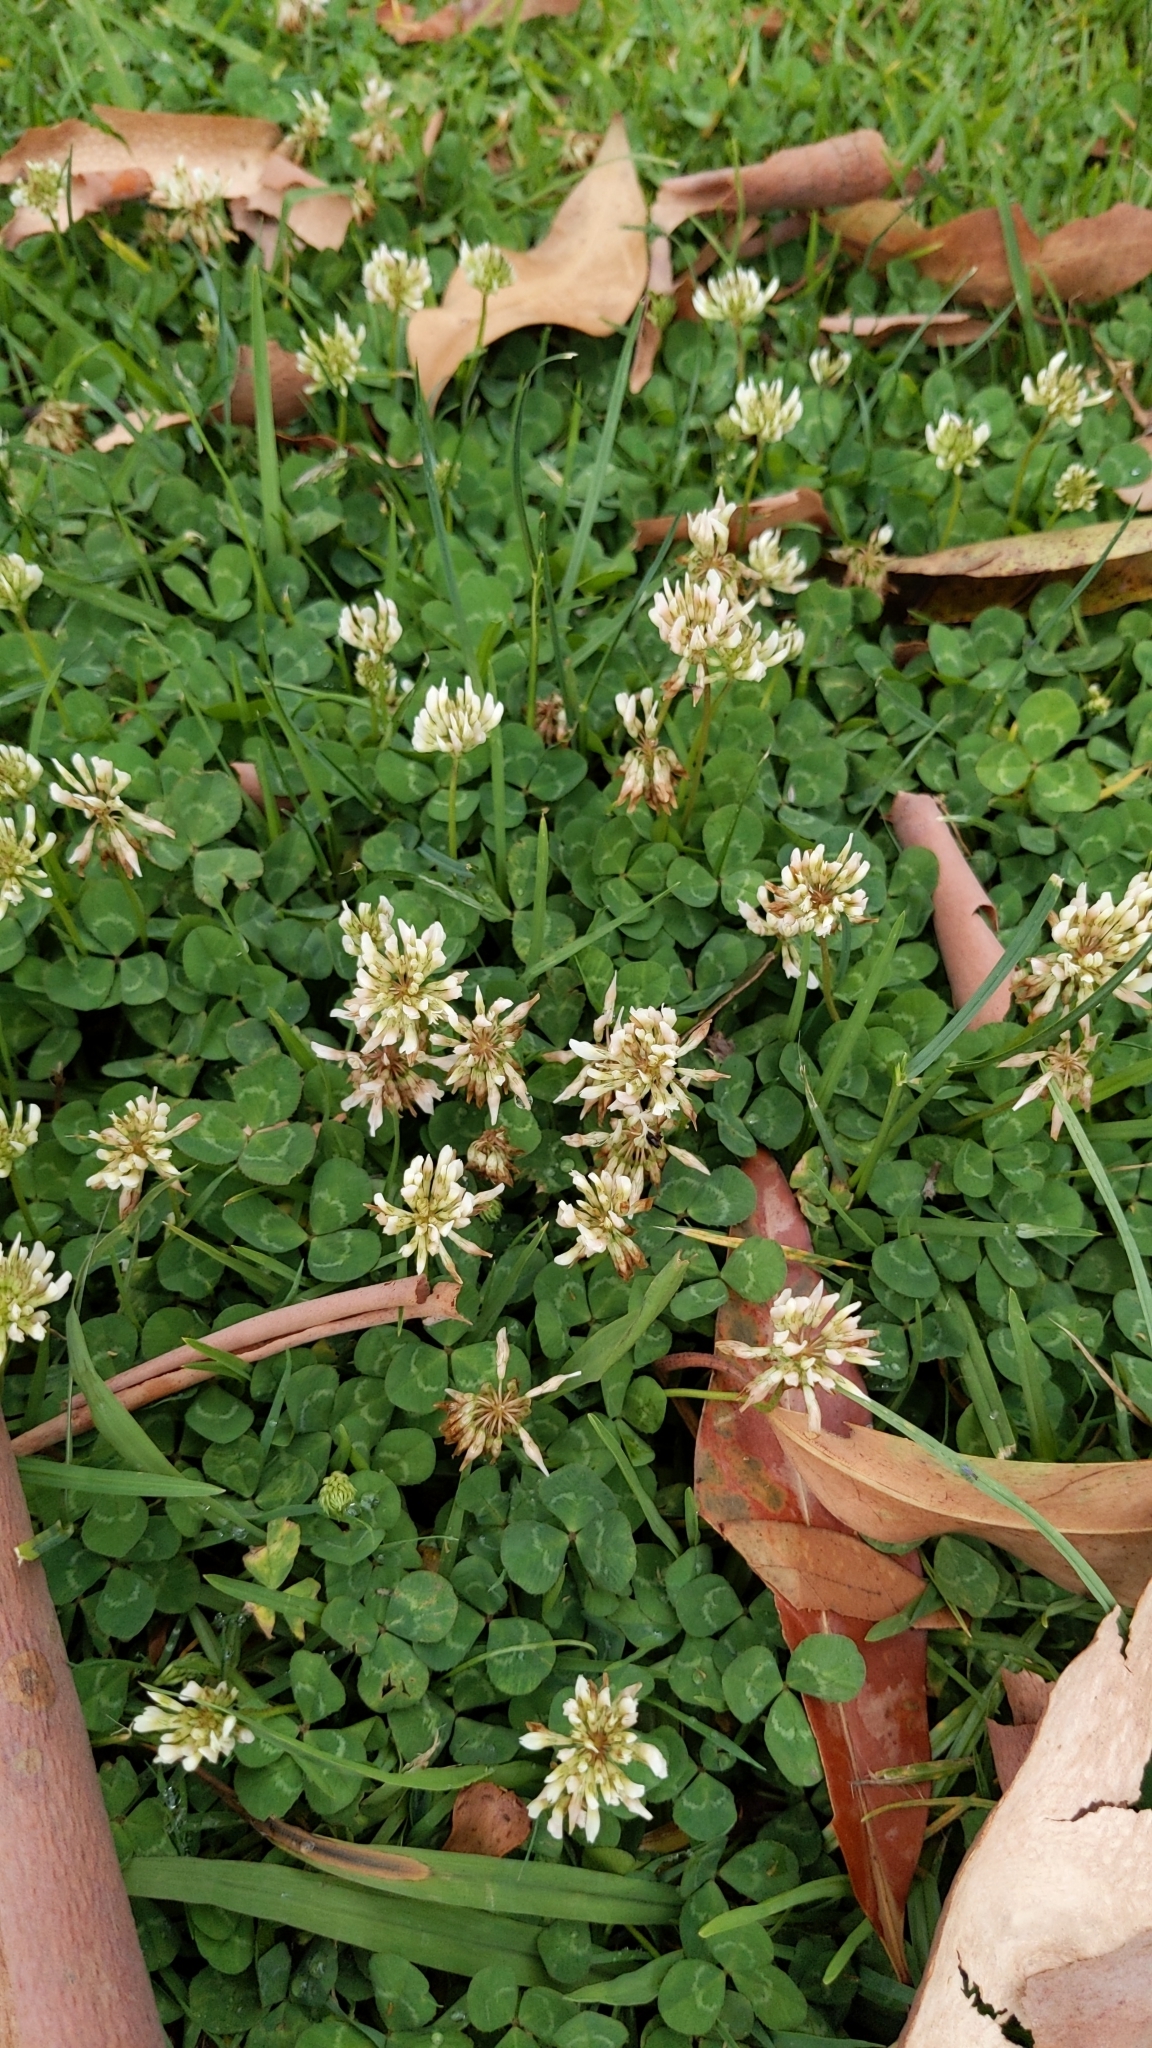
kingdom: Plantae
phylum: Tracheophyta
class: Magnoliopsida
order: Fabales
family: Fabaceae
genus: Trifolium
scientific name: Trifolium repens
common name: White clover
